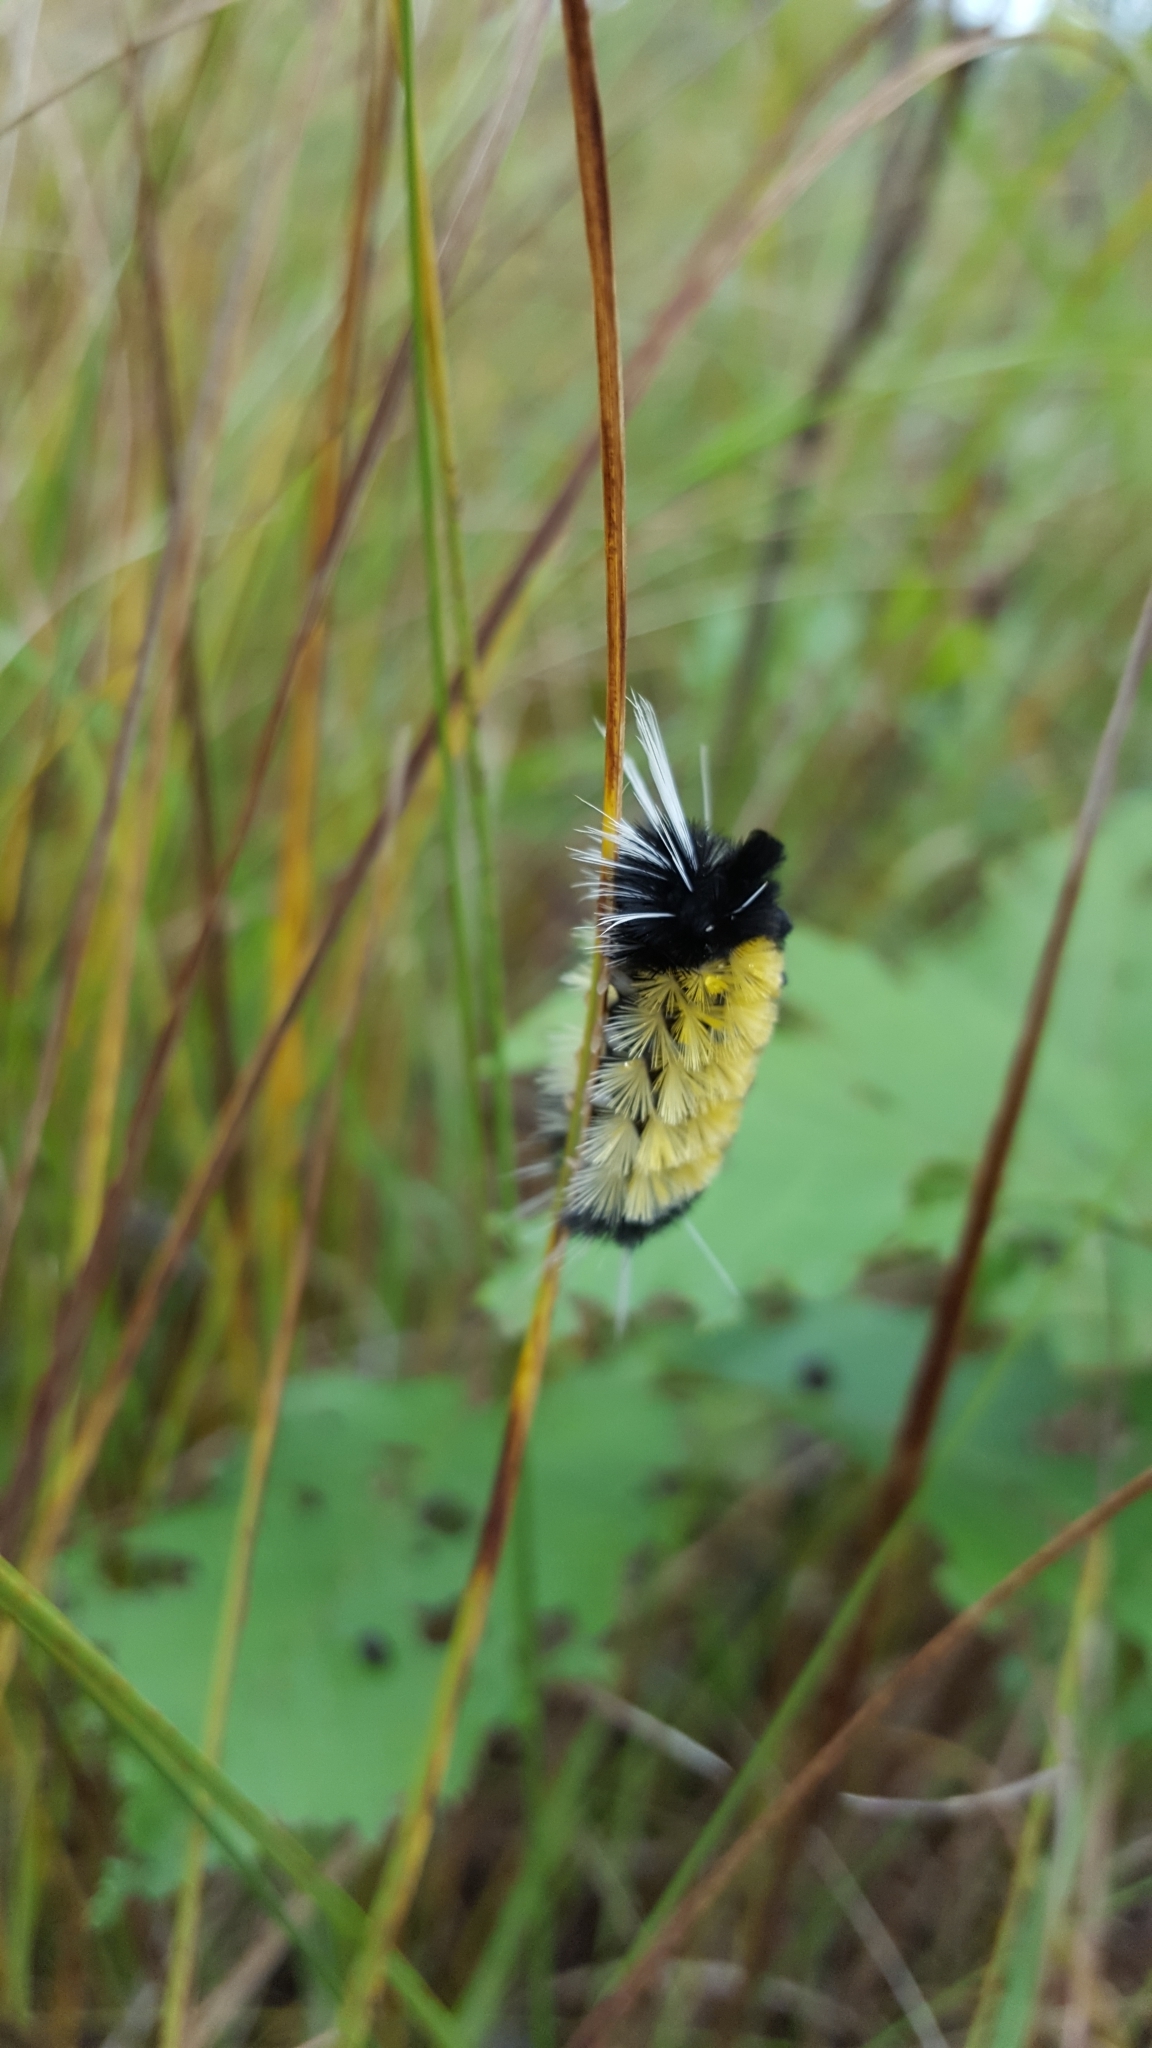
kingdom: Animalia
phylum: Arthropoda
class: Insecta
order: Lepidoptera
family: Erebidae
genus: Lophocampa
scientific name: Lophocampa maculata
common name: Spotted tussock moth
